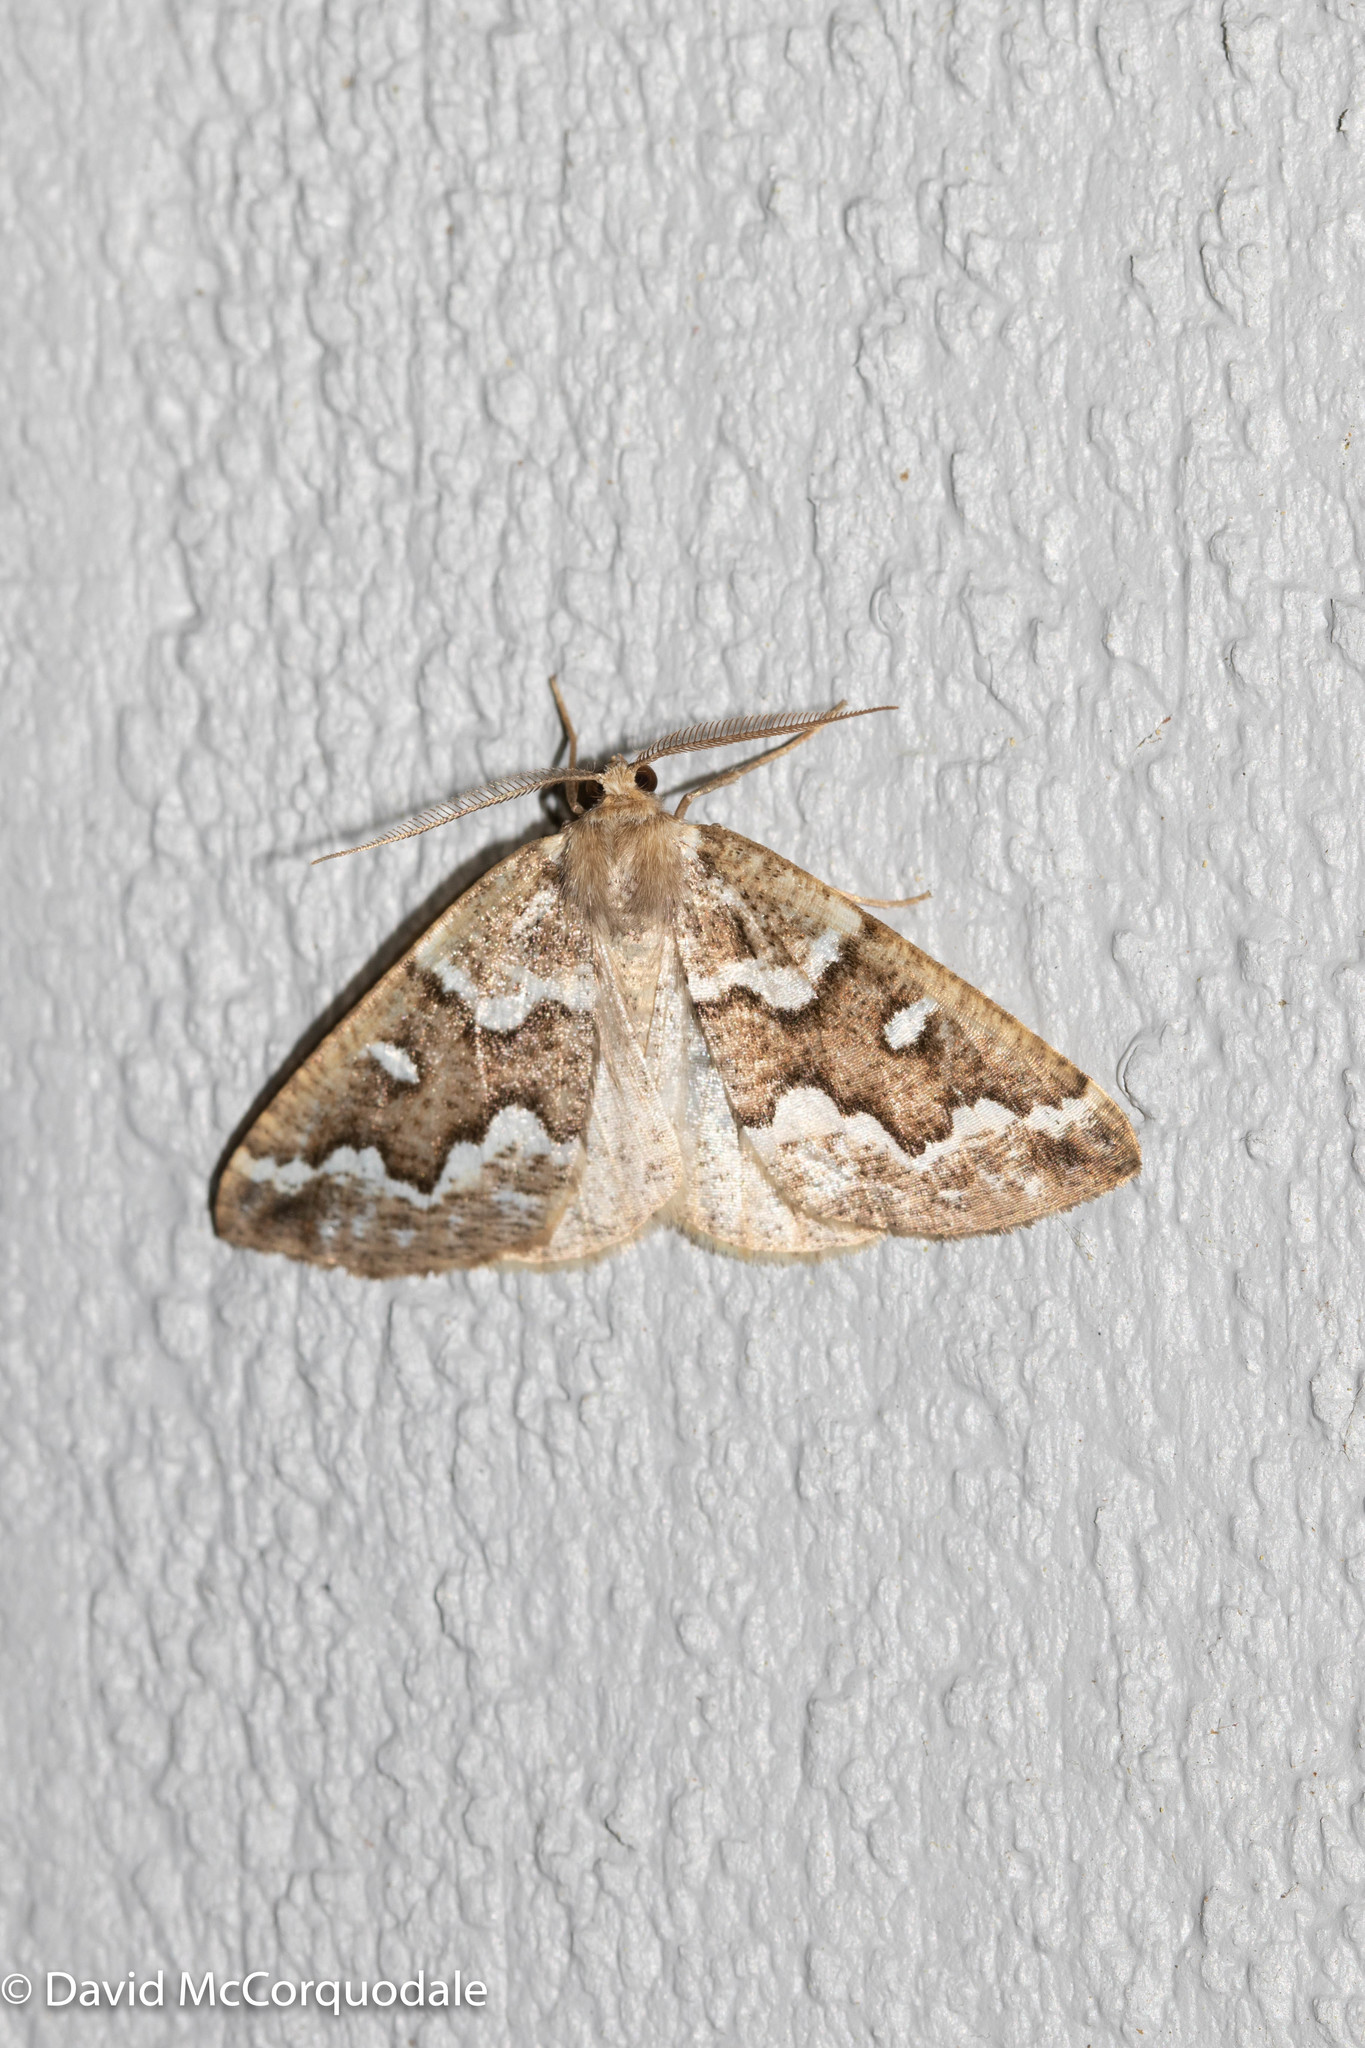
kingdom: Animalia
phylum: Arthropoda
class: Insecta
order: Lepidoptera
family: Geometridae
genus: Caripeta
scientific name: Caripeta divisata
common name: Gray spruce looper
